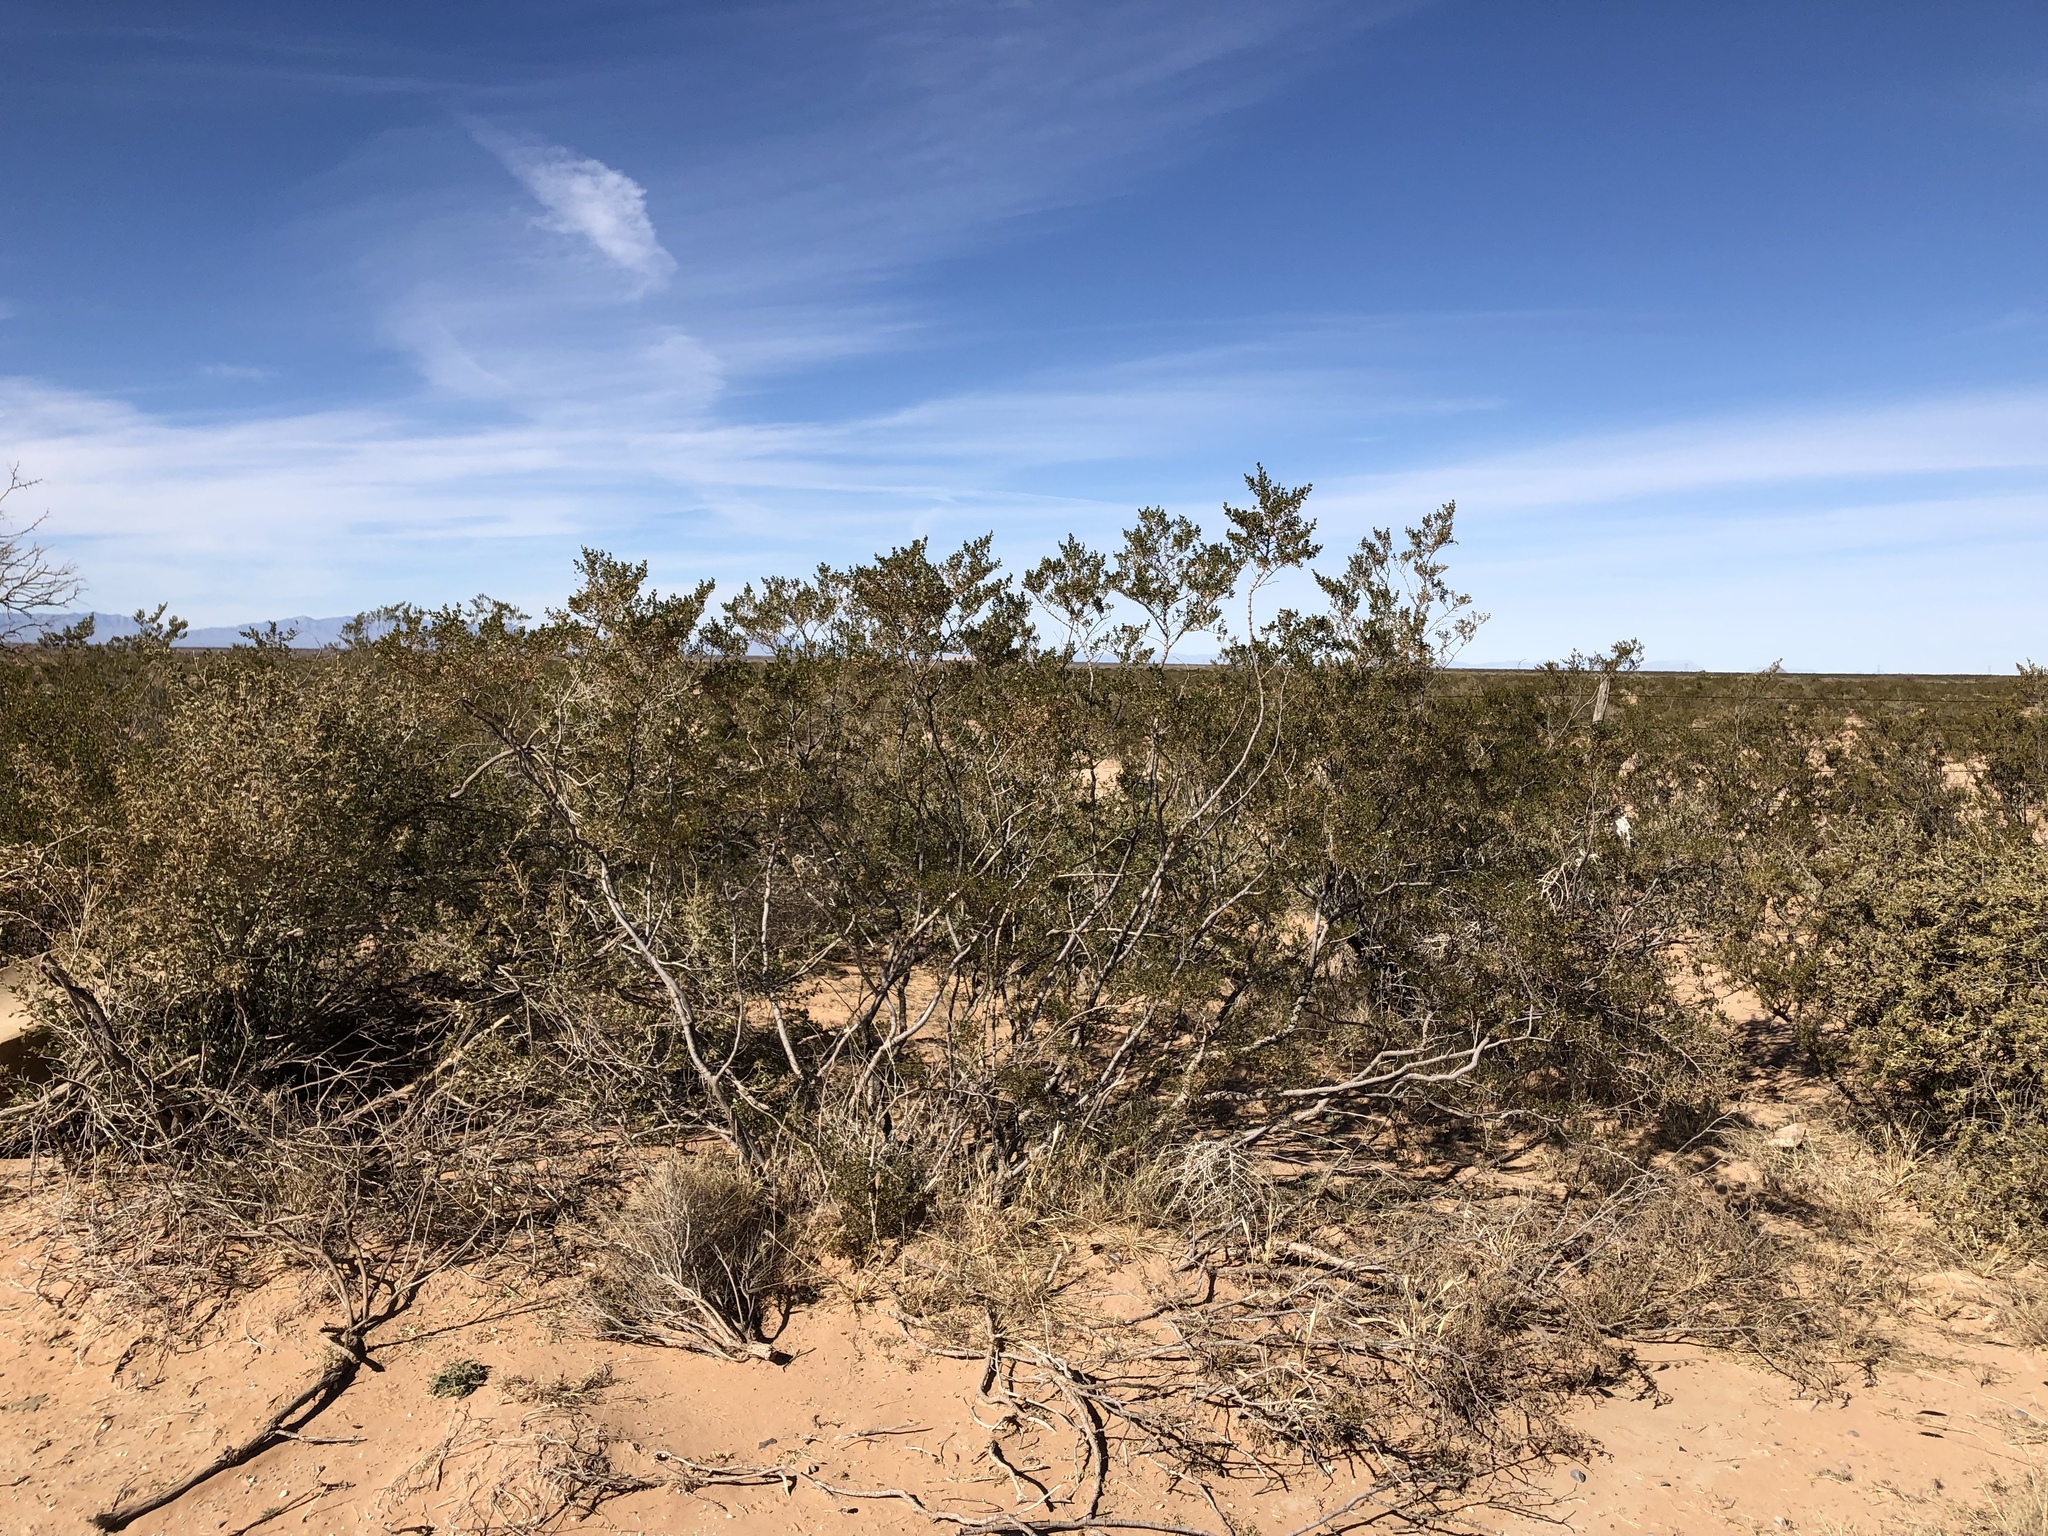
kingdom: Plantae
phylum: Tracheophyta
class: Magnoliopsida
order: Zygophyllales
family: Zygophyllaceae
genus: Larrea
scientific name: Larrea tridentata
